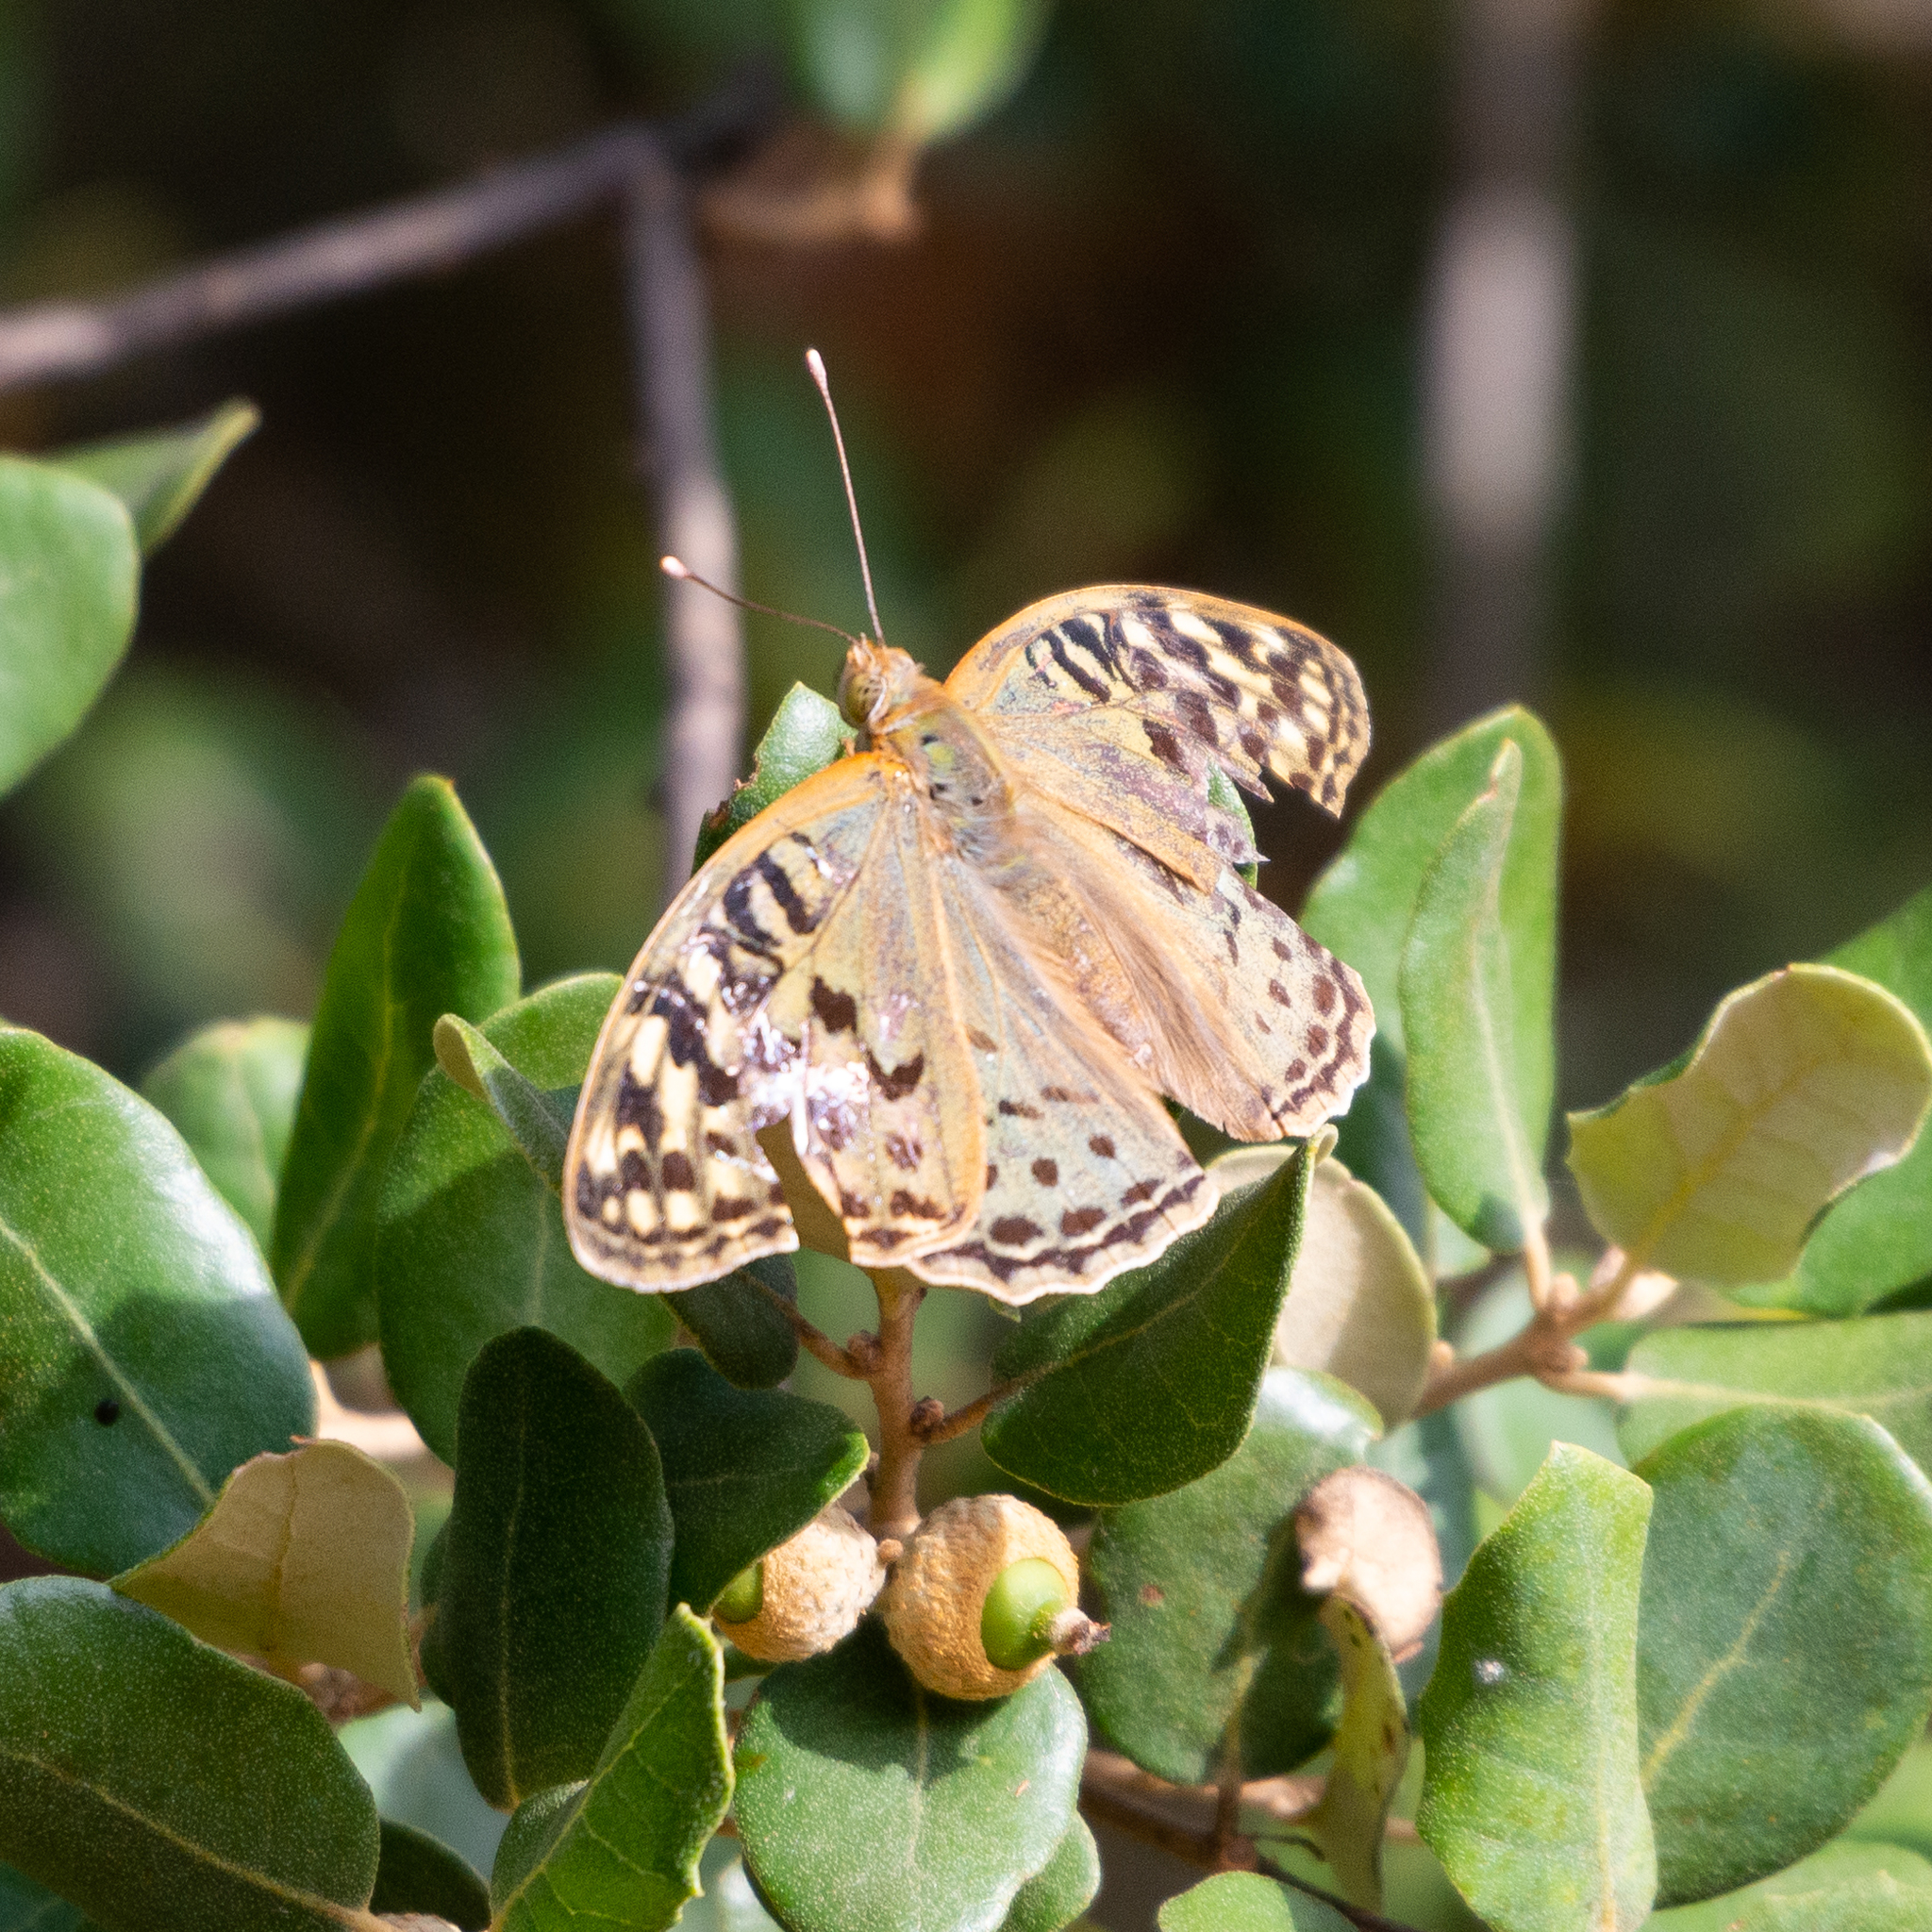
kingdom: Animalia
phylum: Arthropoda
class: Insecta
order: Lepidoptera
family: Nymphalidae
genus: Damora
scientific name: Damora pandora
